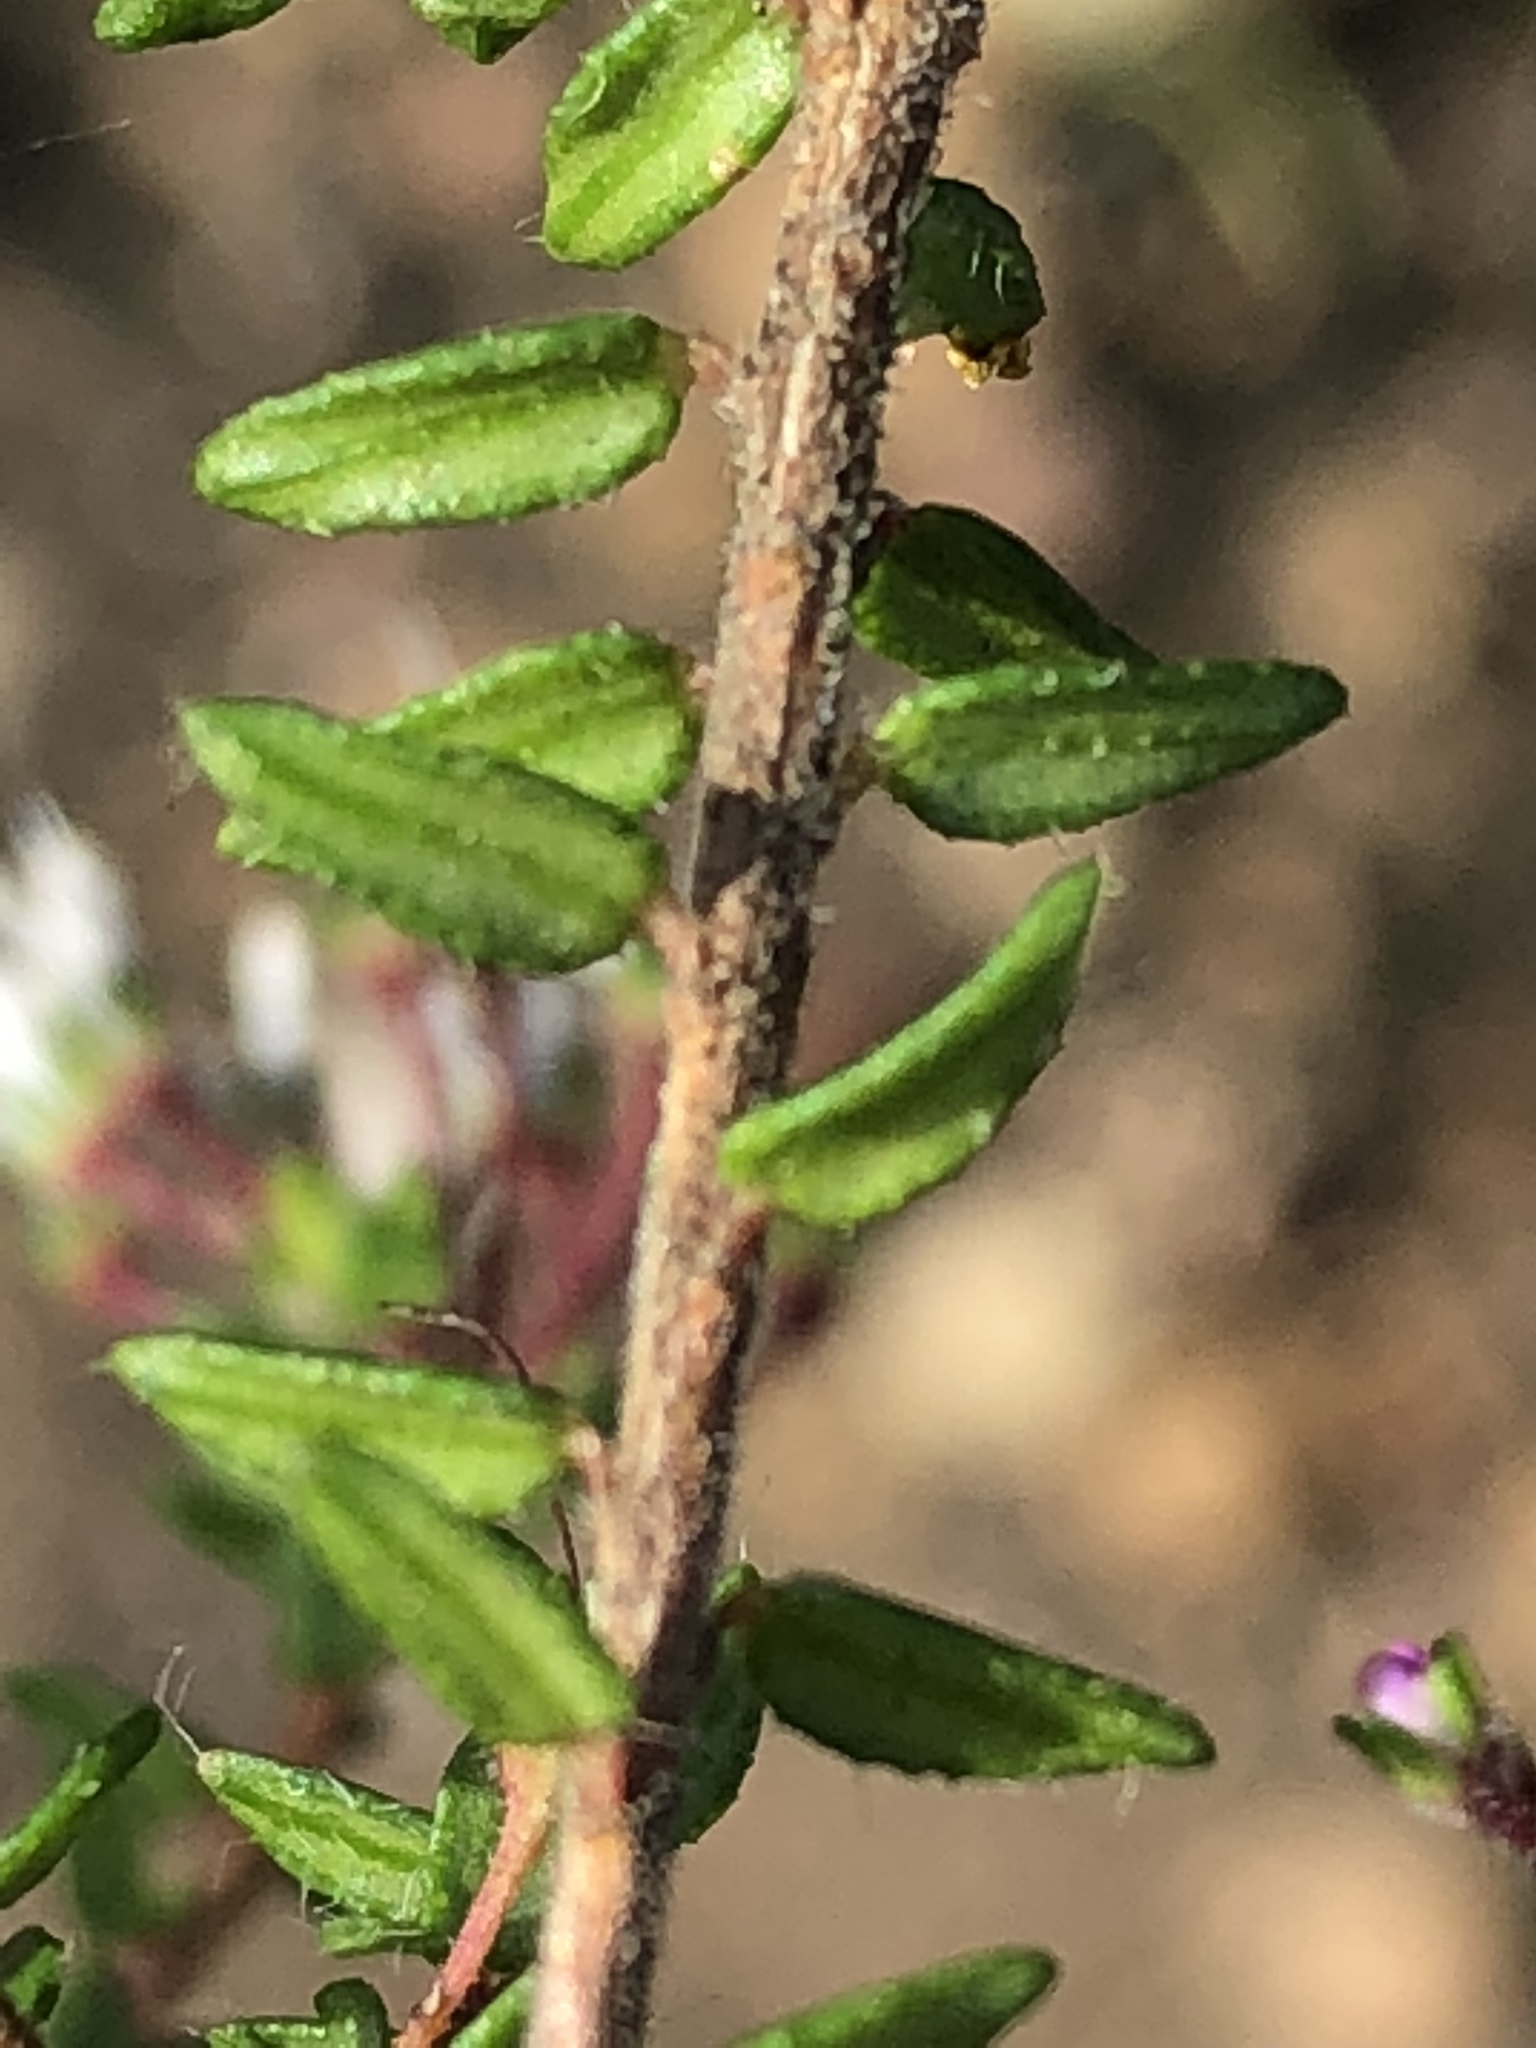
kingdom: Plantae
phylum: Tracheophyta
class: Magnoliopsida
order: Sapindales
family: Rutaceae
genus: Agathosma
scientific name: Agathosma riversdalensis
